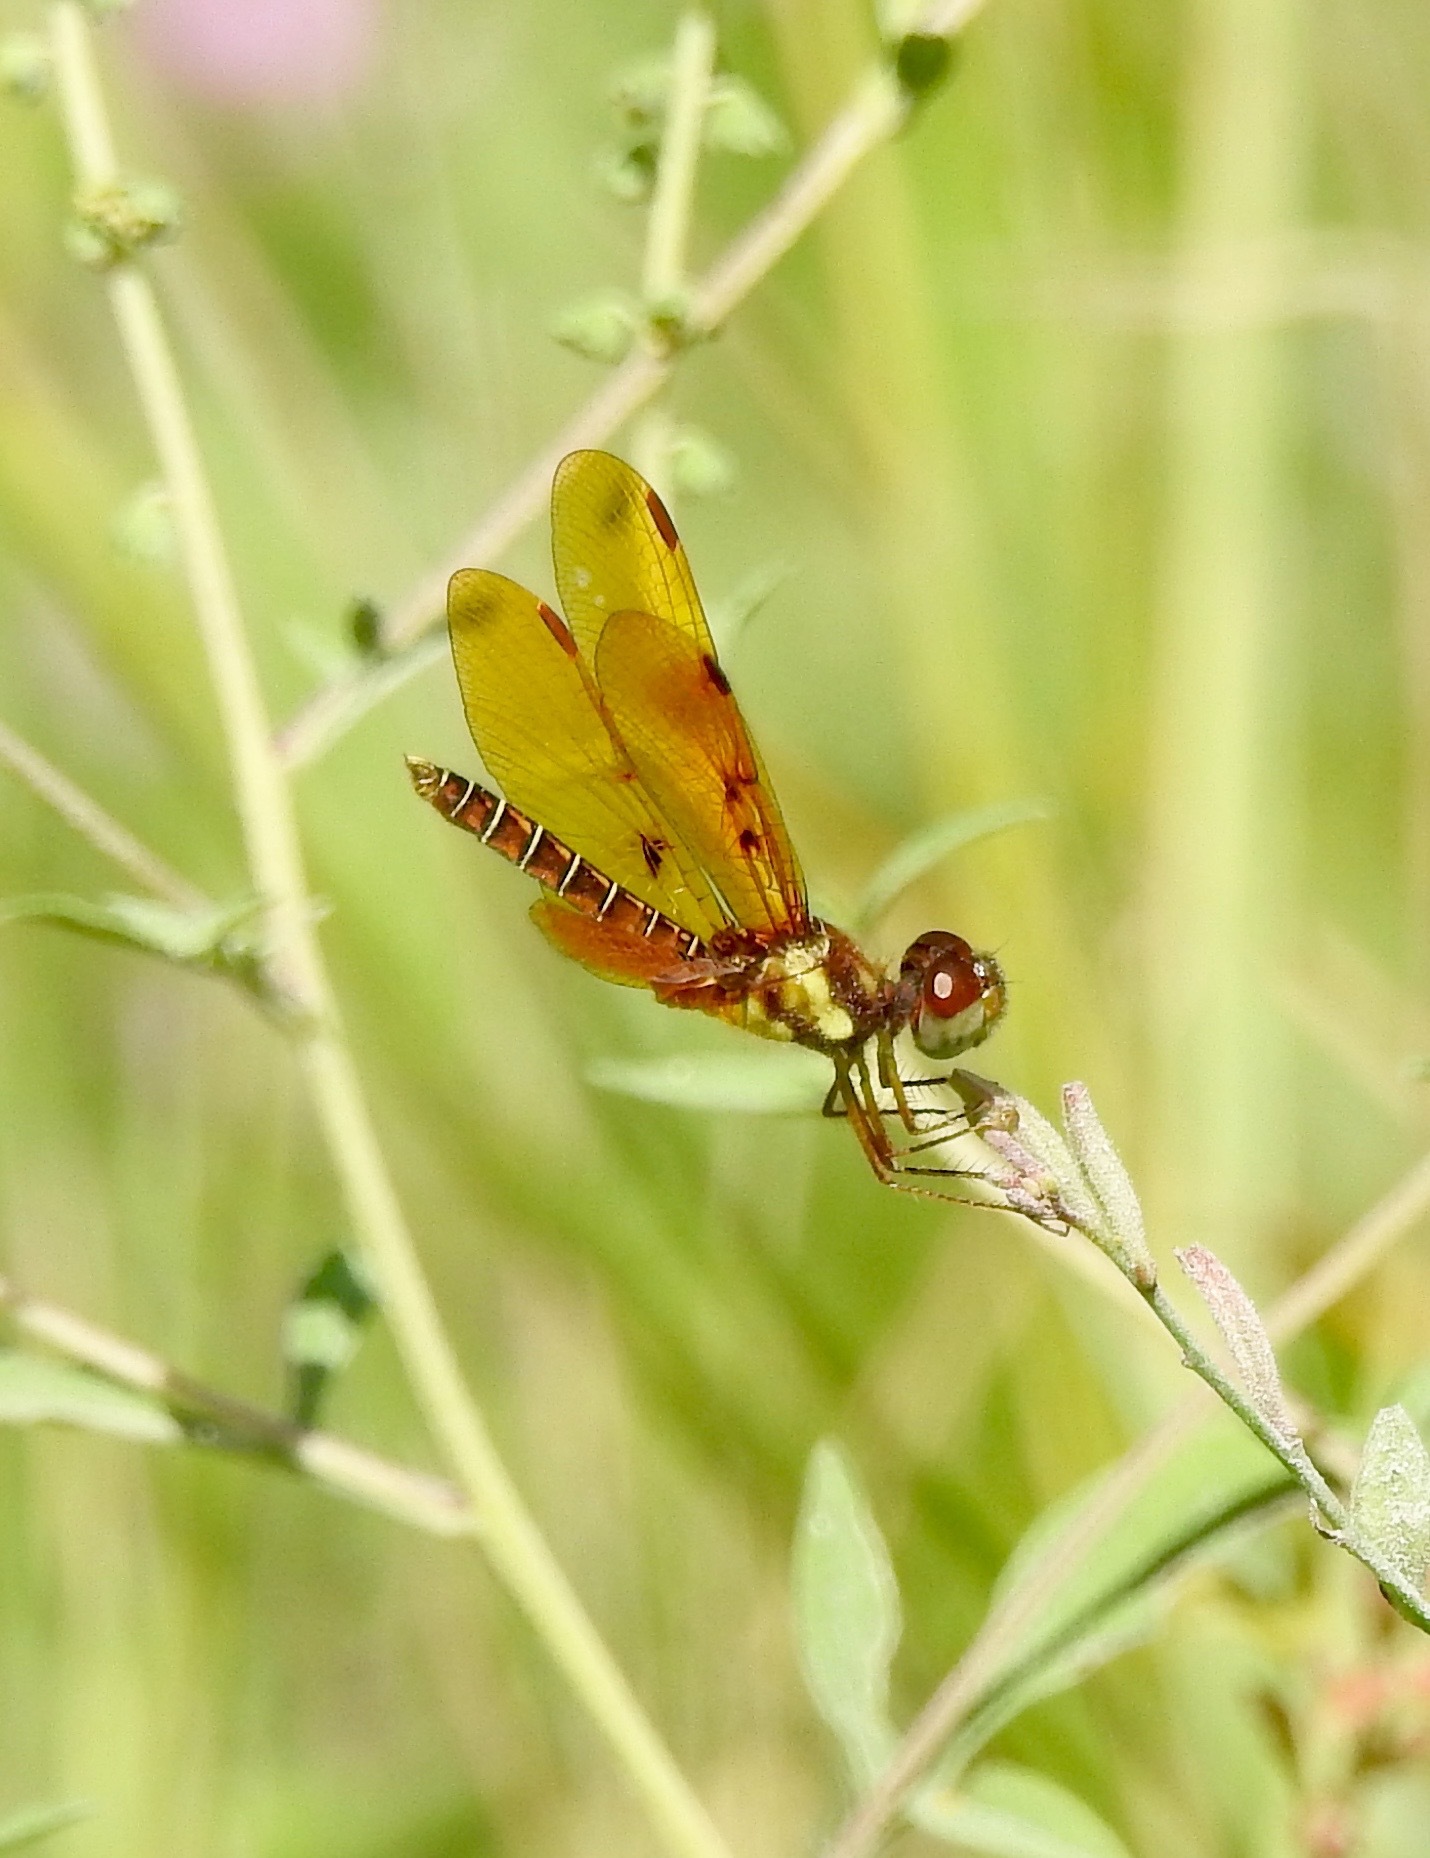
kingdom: Animalia
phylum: Arthropoda
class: Insecta
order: Odonata
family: Libellulidae
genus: Perithemis
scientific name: Perithemis tenera
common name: Eastern amberwing
